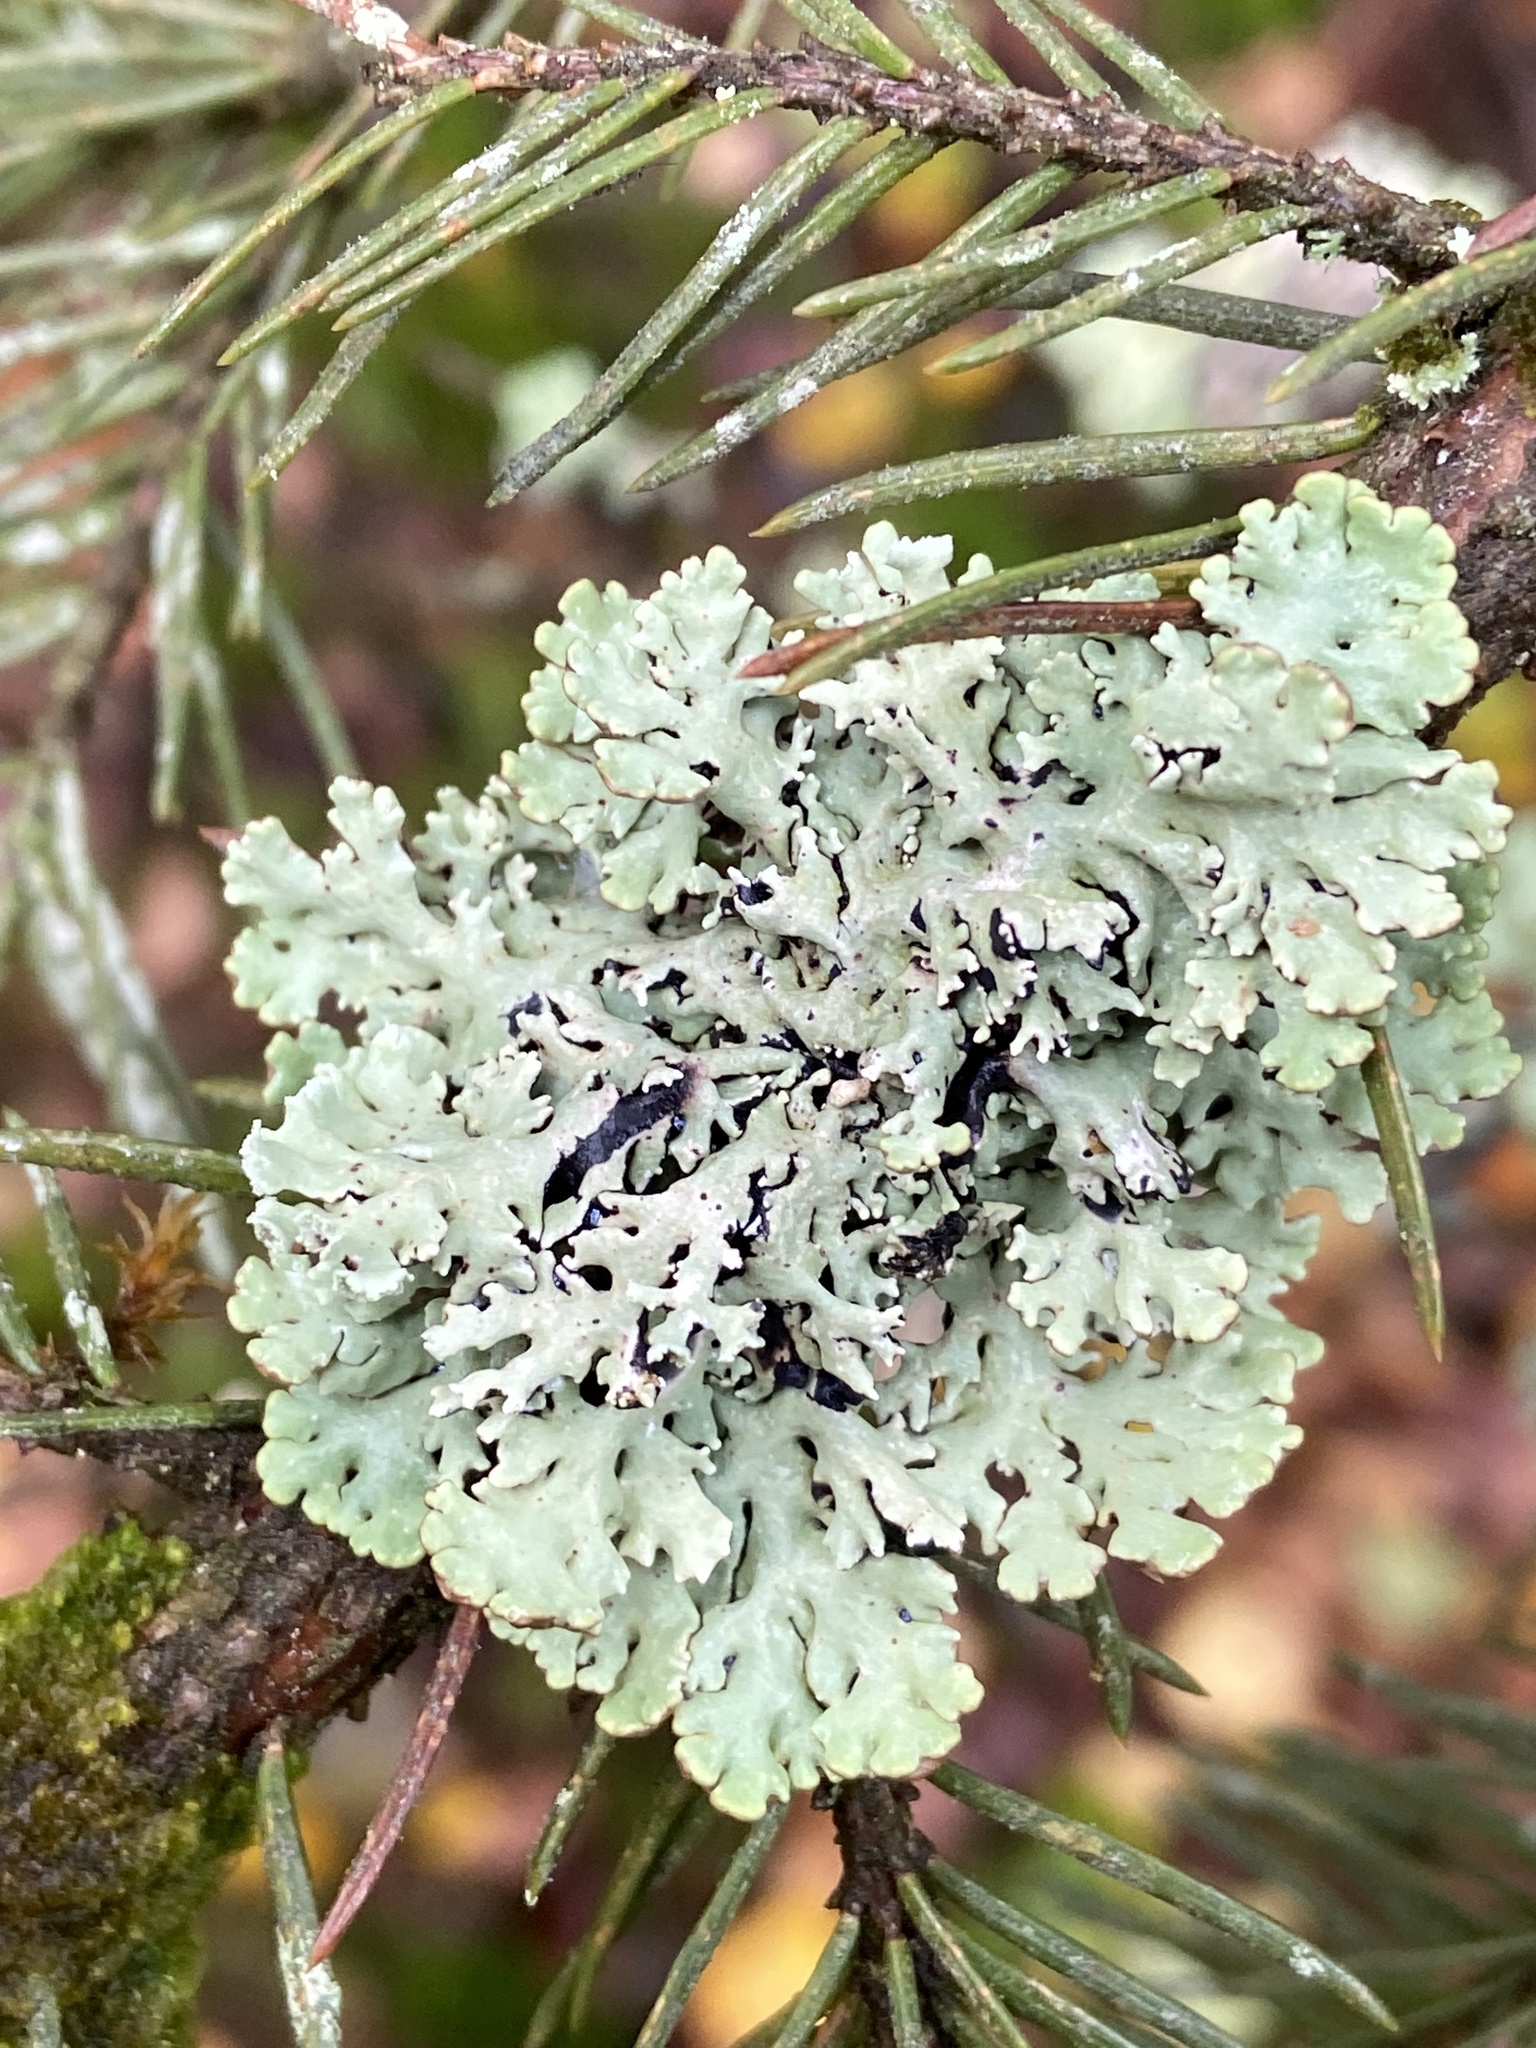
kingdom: Fungi
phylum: Ascomycota
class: Lecanoromycetes
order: Lecanorales
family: Parmeliaceae
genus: Hypogymnia
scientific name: Hypogymnia physodes
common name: Dark crottle
